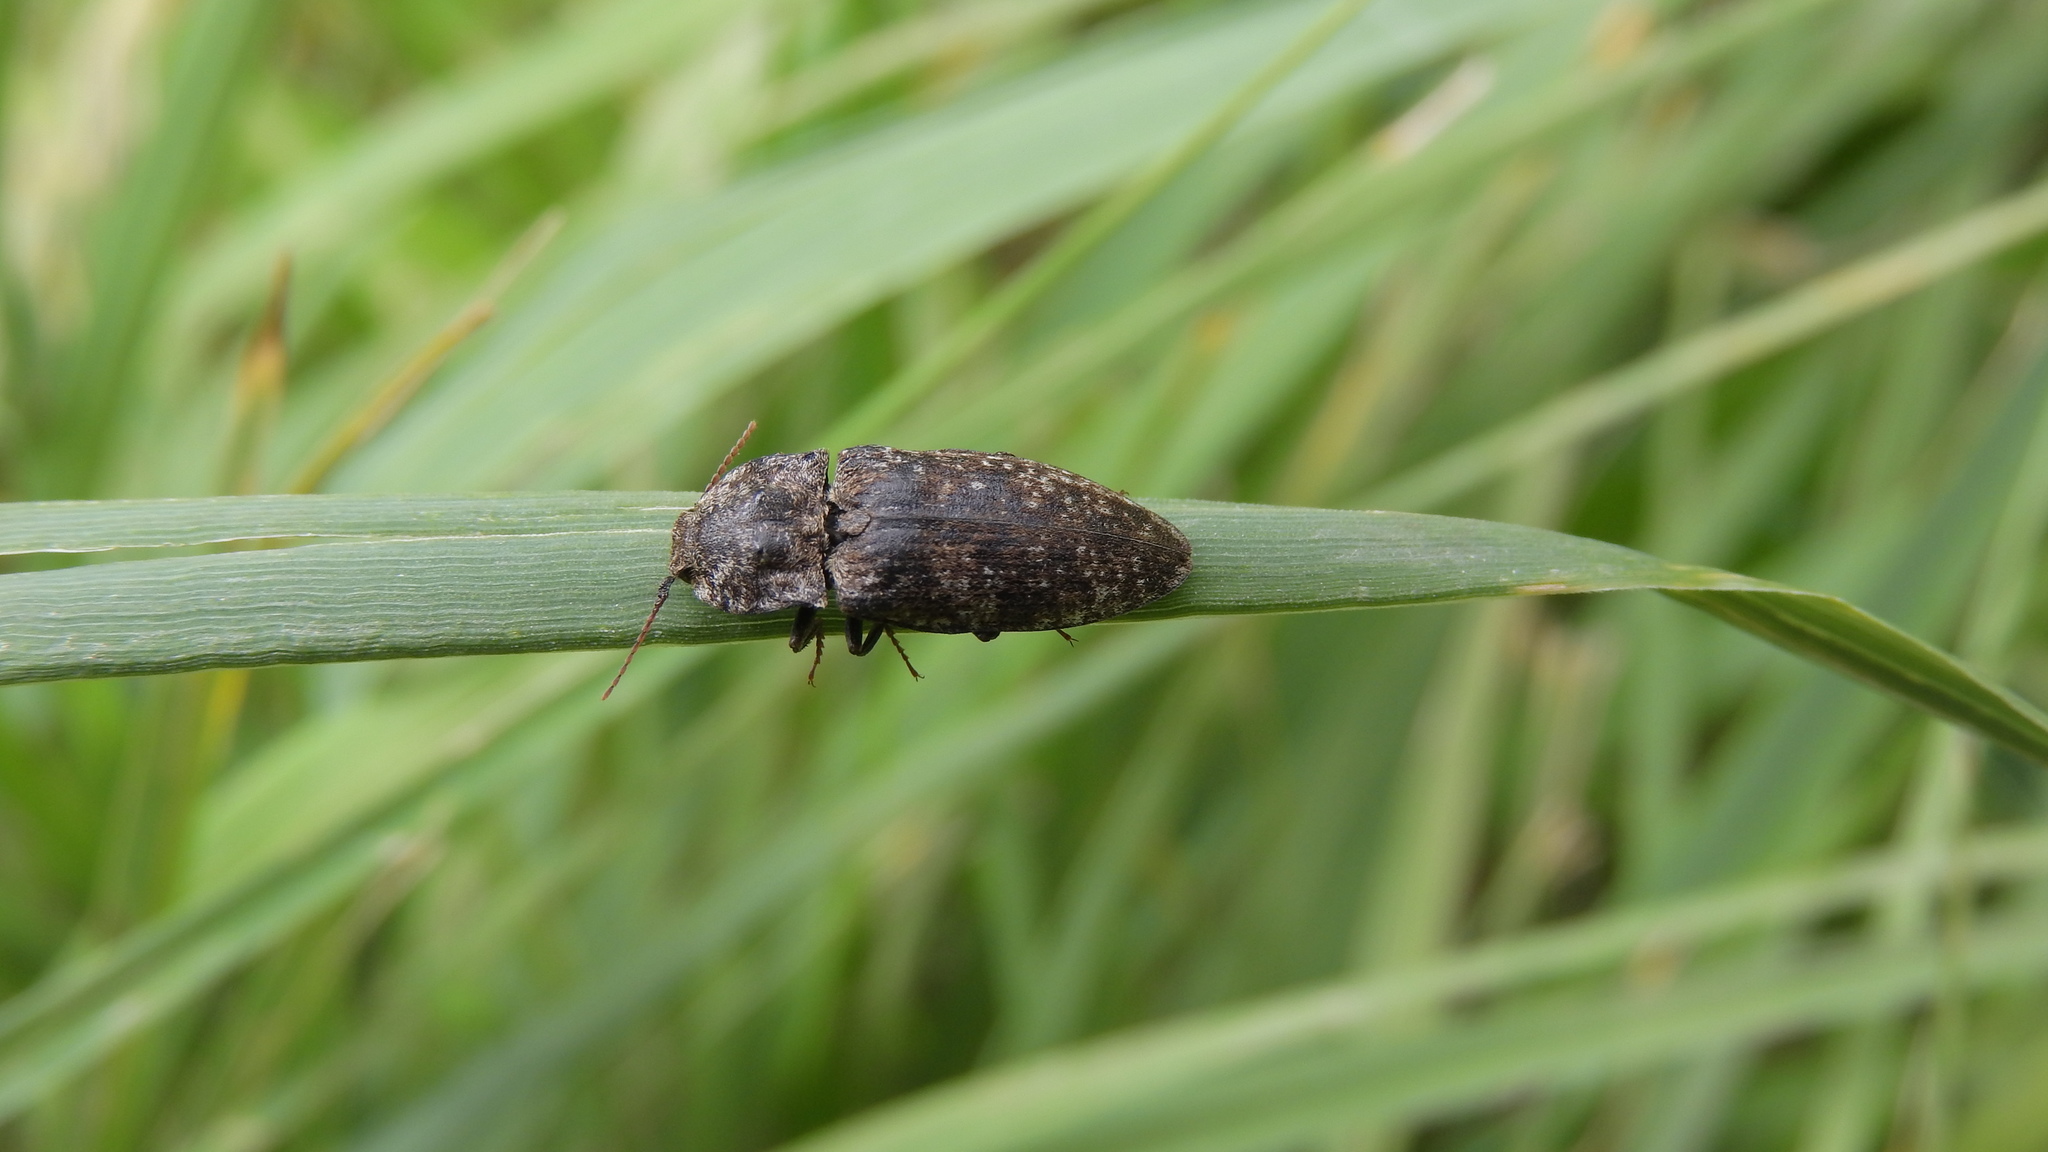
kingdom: Animalia
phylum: Arthropoda
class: Insecta
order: Coleoptera
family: Elateridae
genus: Agrypnus
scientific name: Agrypnus murinus
